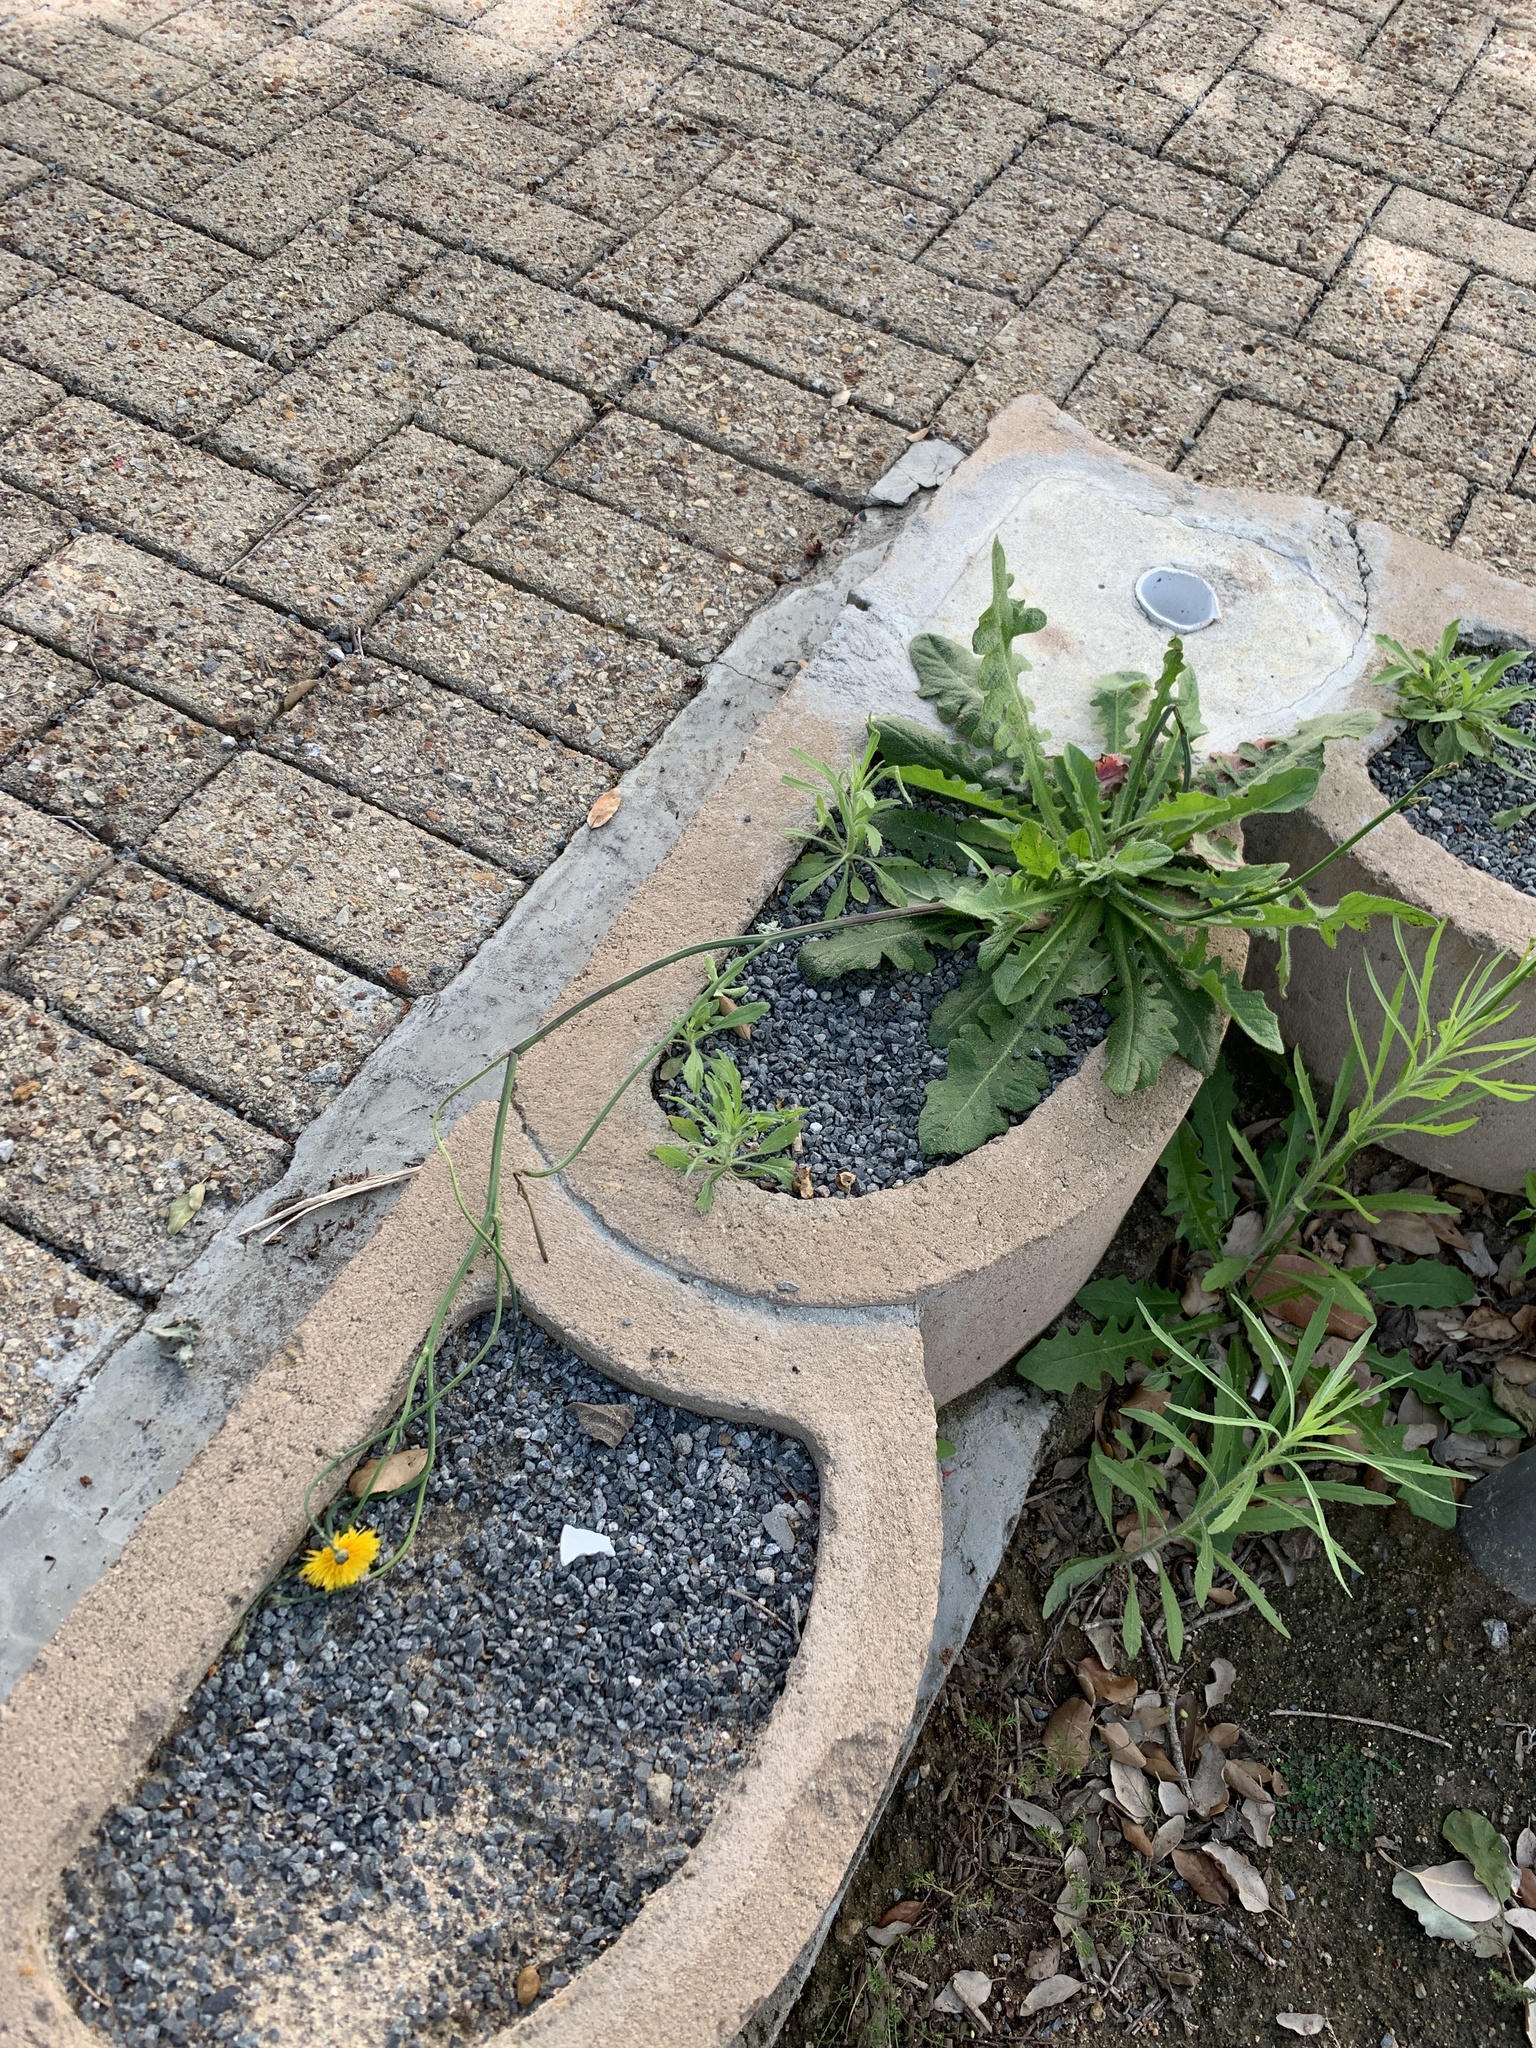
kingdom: Plantae
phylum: Tracheophyta
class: Magnoliopsida
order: Asterales
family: Asteraceae
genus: Hypochaeris
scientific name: Hypochaeris radicata
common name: Flatweed
